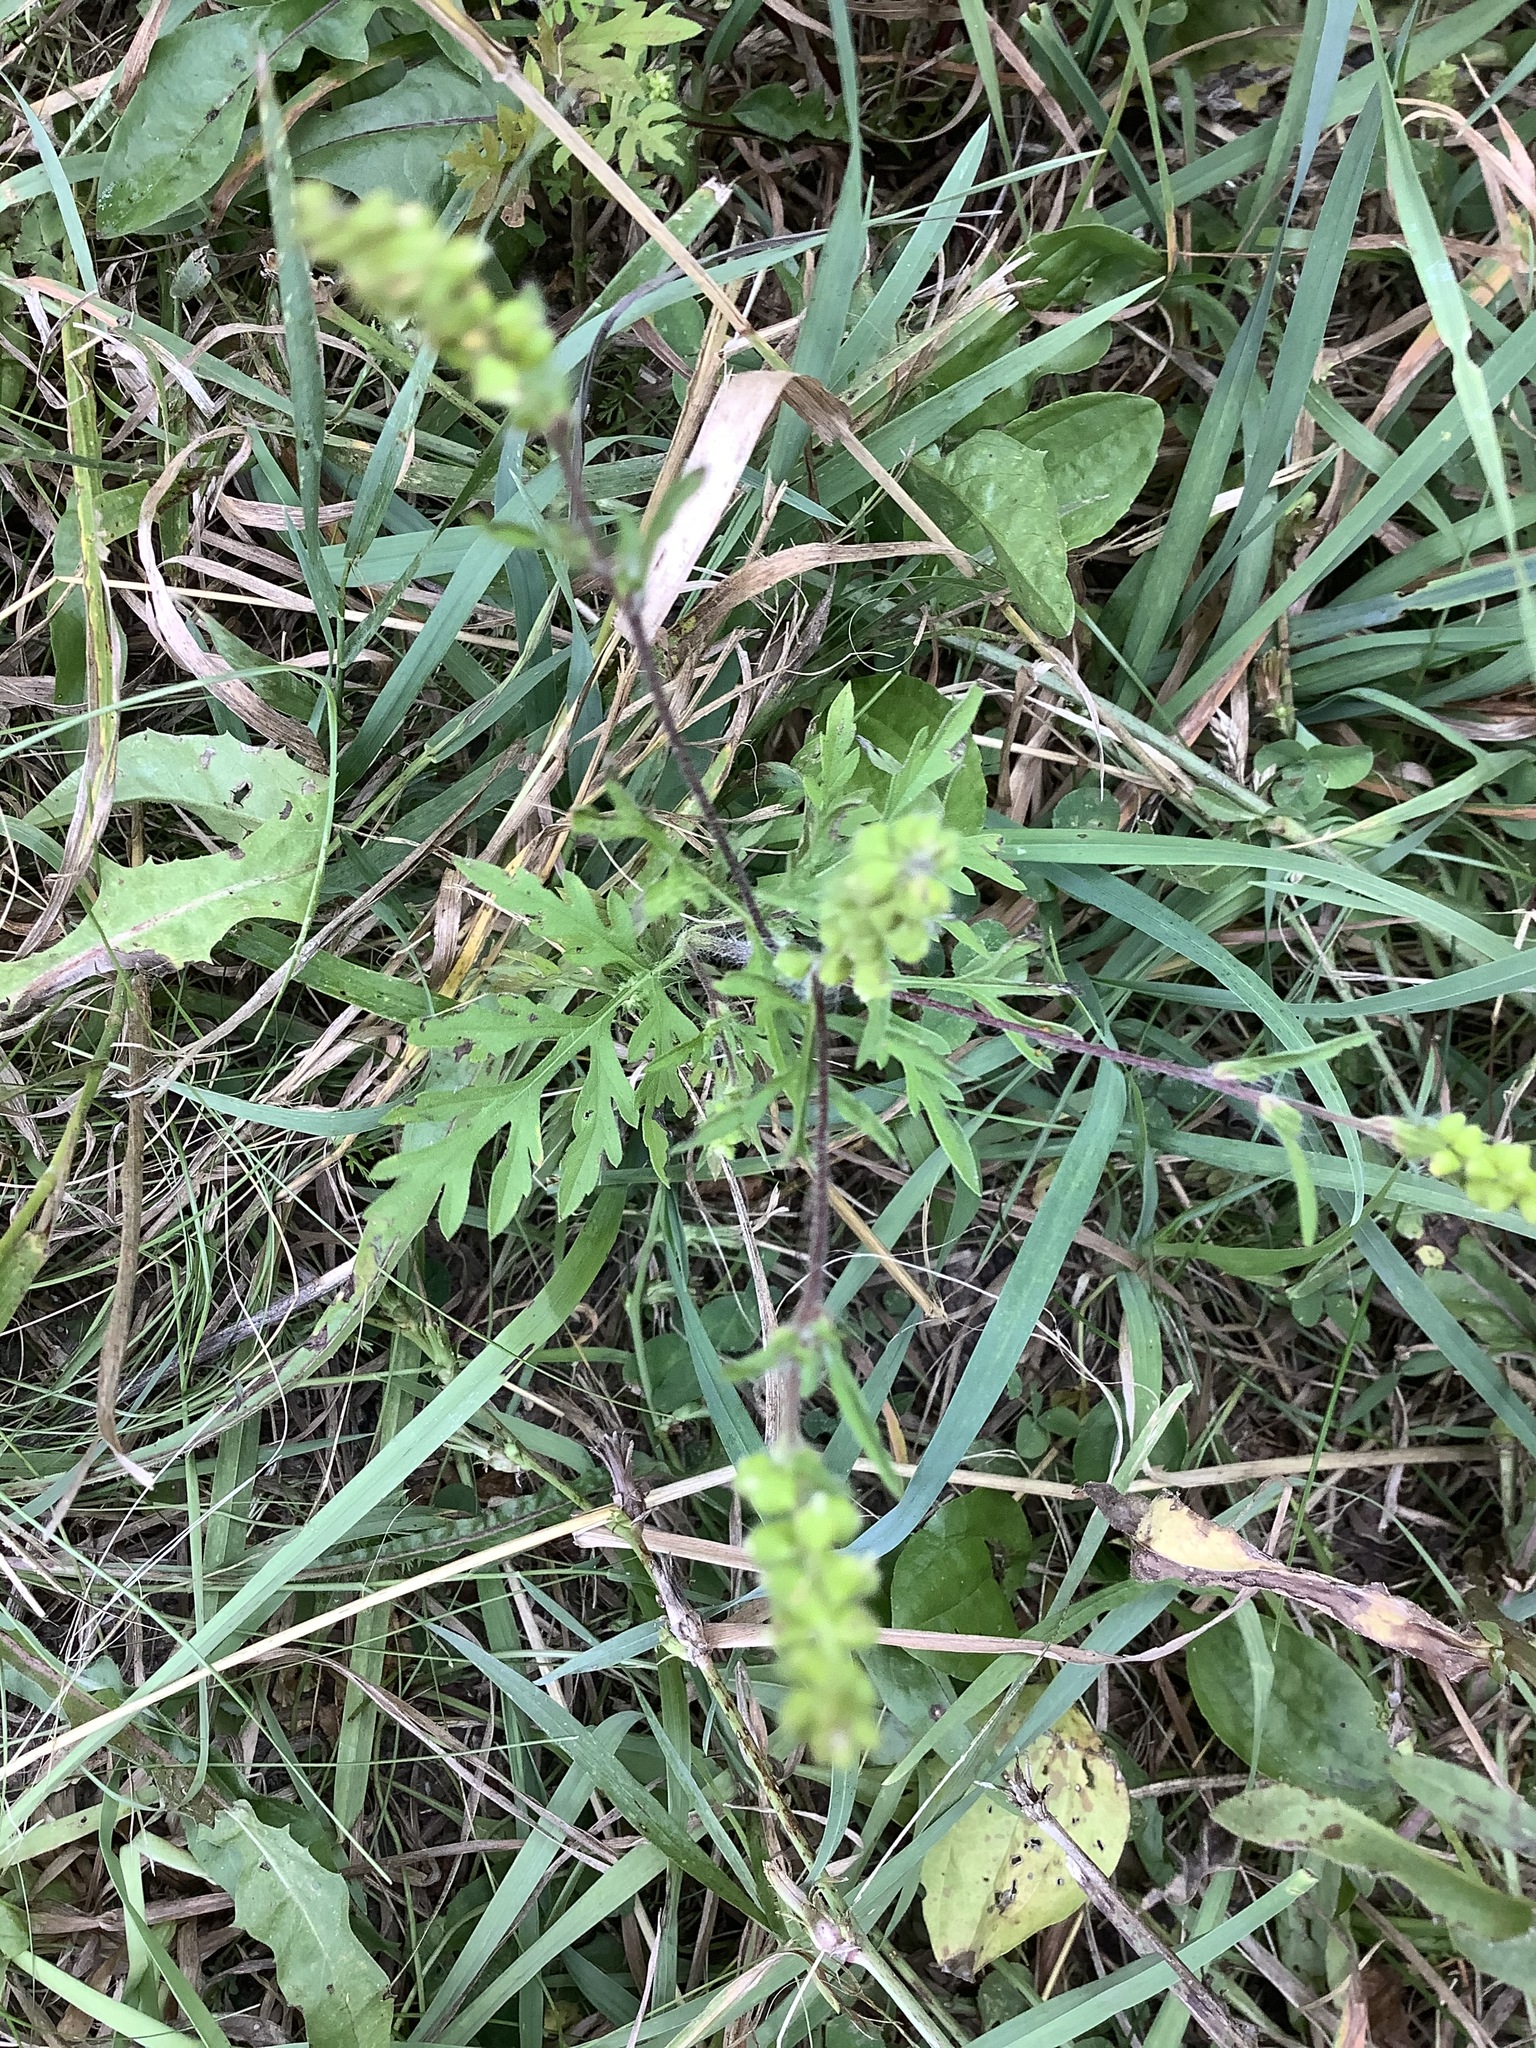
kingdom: Plantae
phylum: Tracheophyta
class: Magnoliopsida
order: Asterales
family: Asteraceae
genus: Ambrosia
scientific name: Ambrosia artemisiifolia
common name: Annual ragweed
